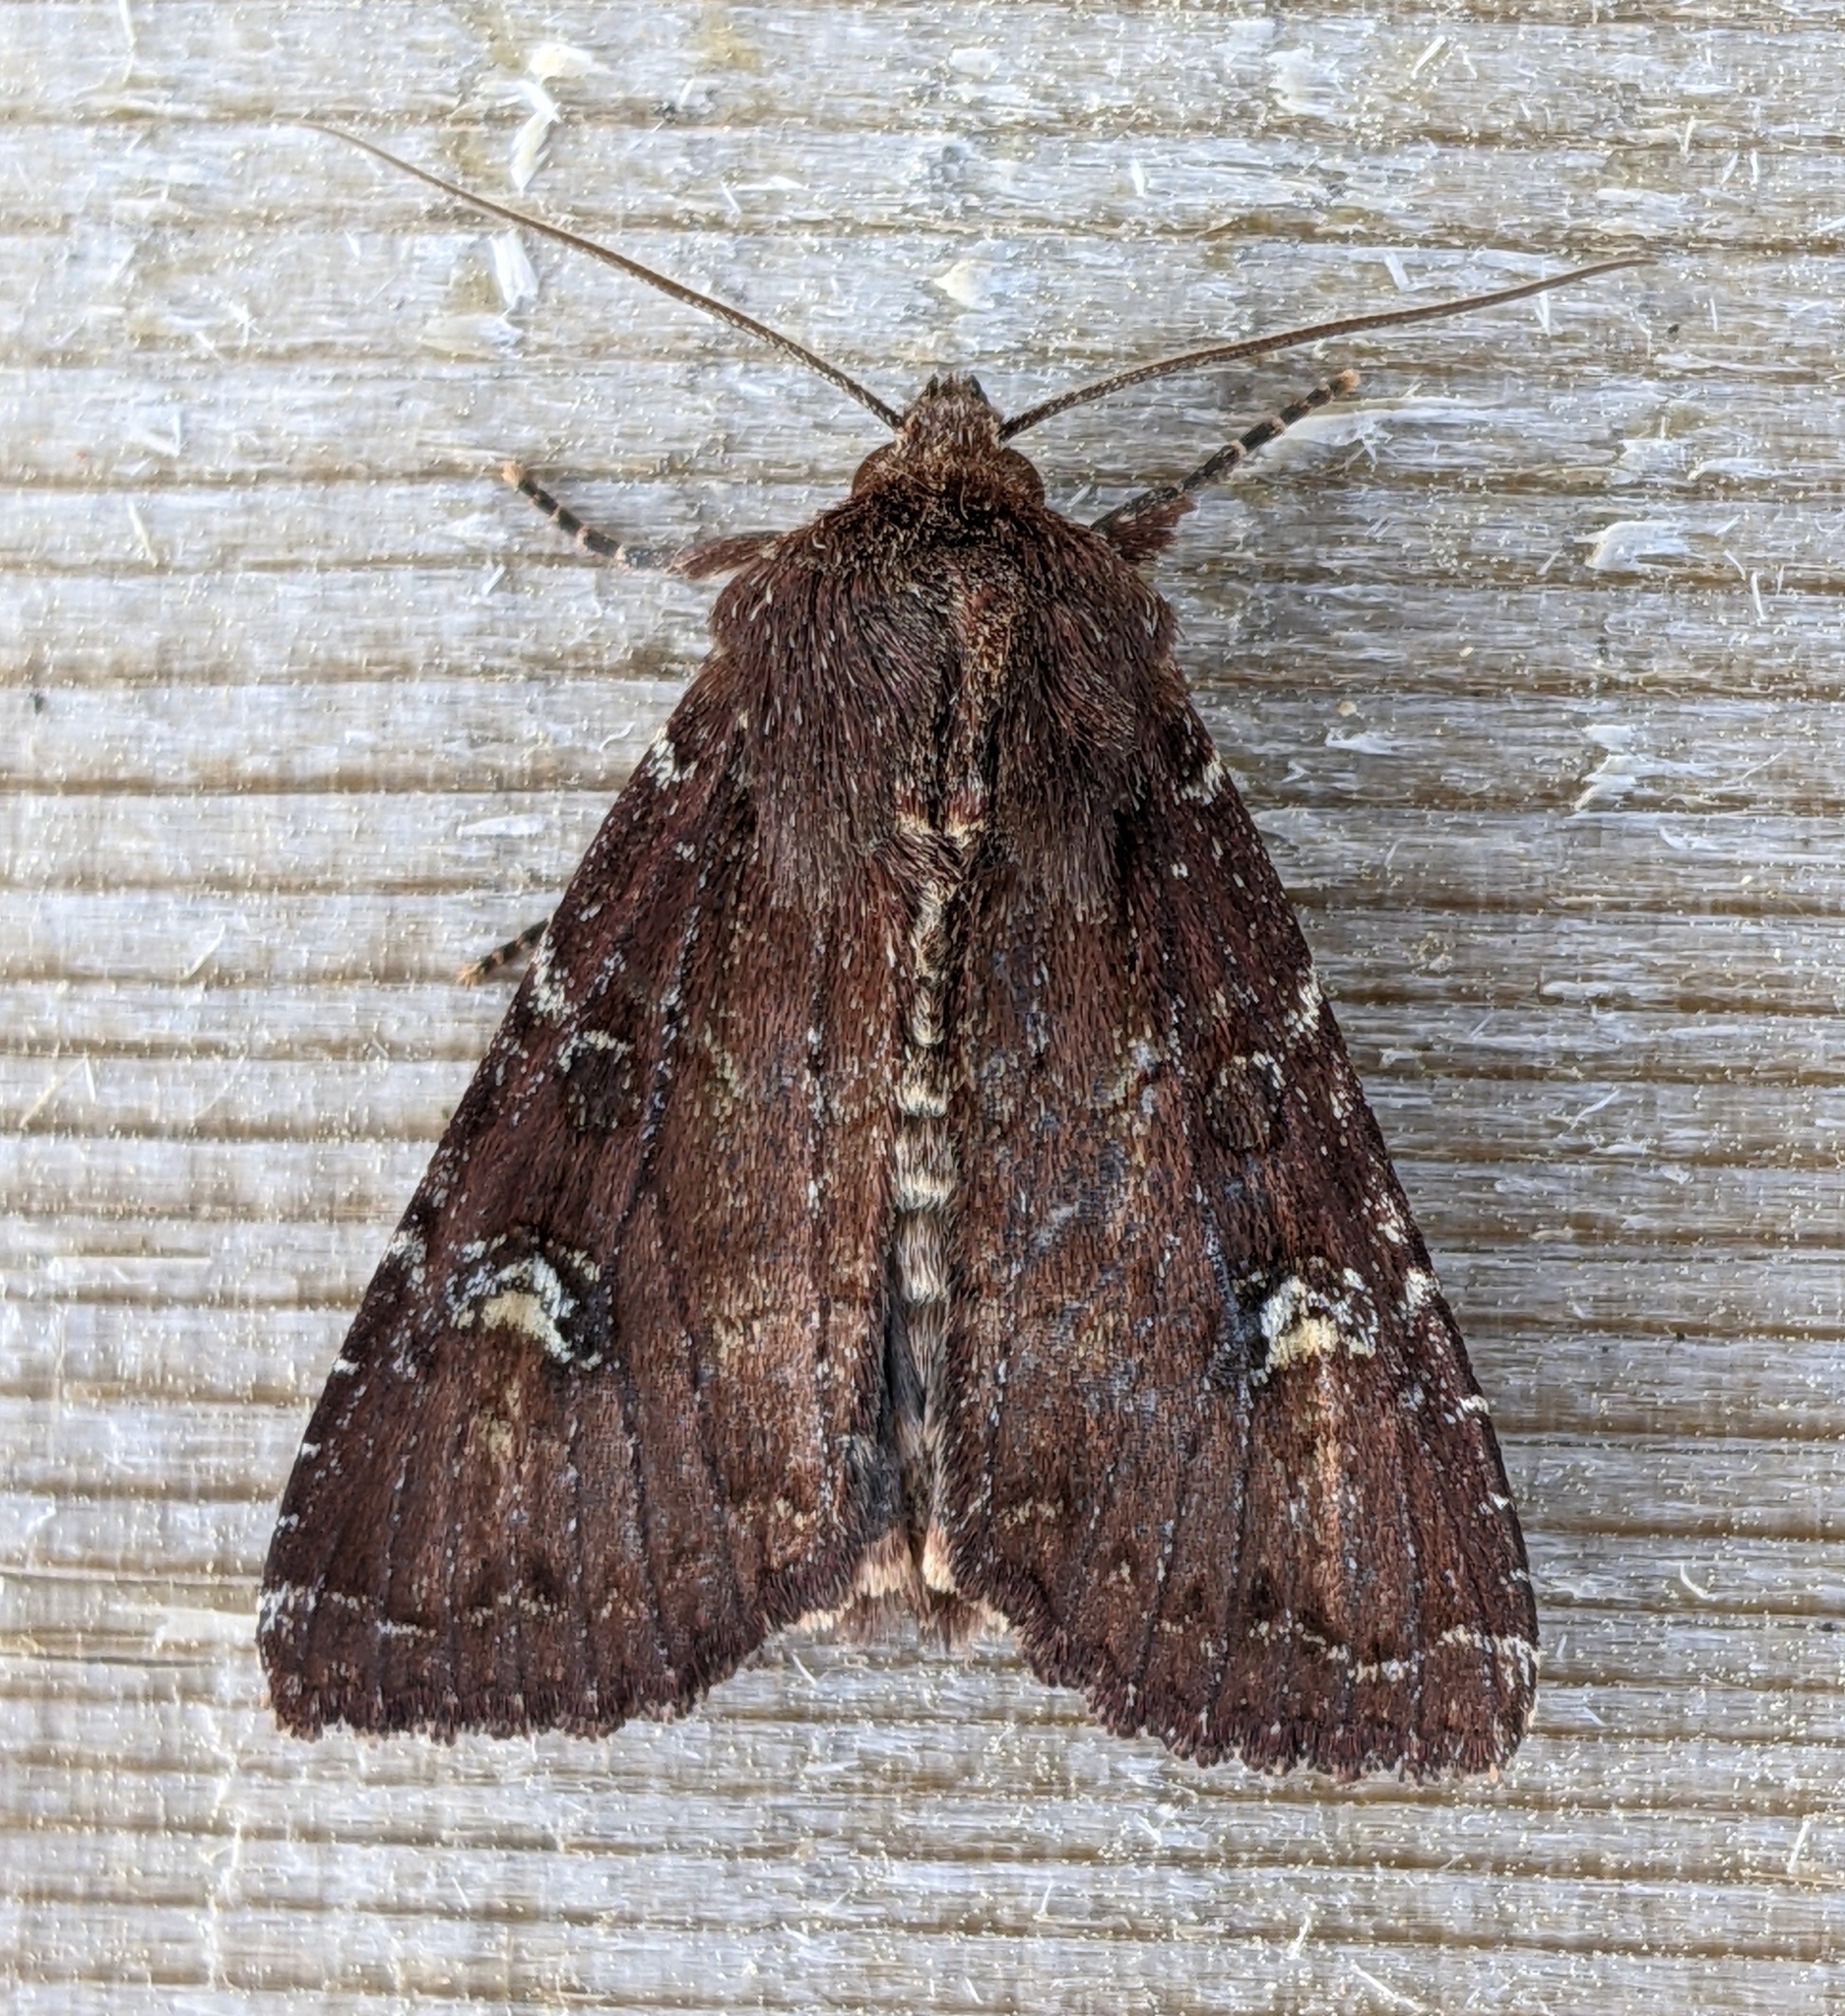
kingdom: Animalia
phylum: Arthropoda
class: Insecta
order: Lepidoptera
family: Noctuidae
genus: Apamea
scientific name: Apamea cogitata
